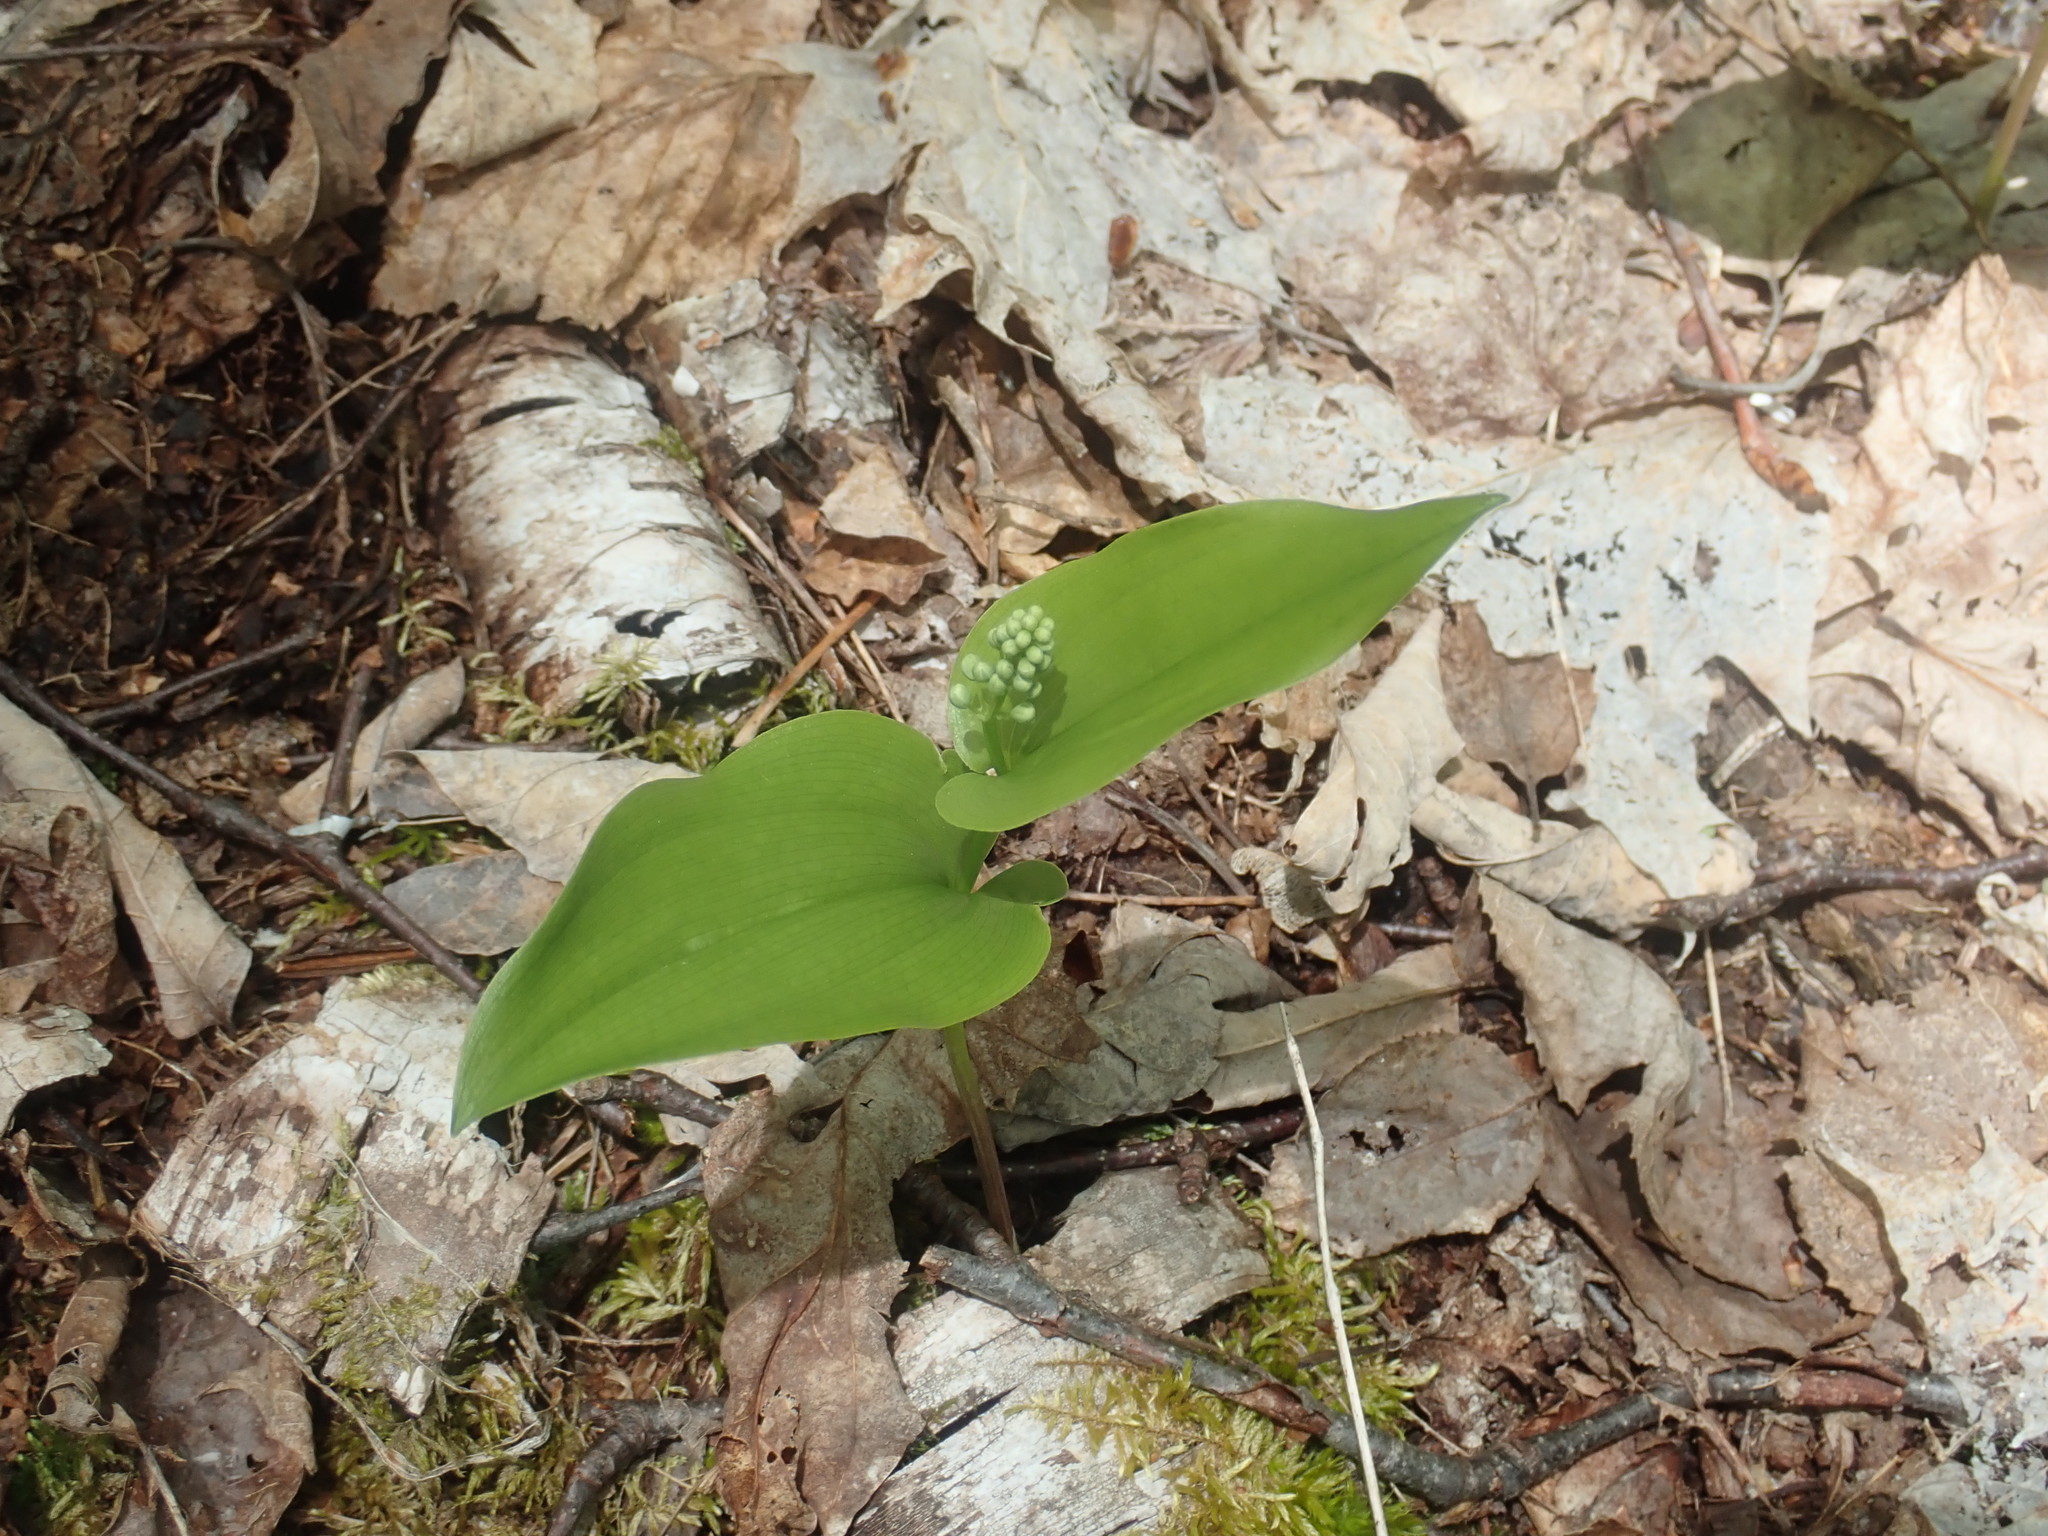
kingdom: Plantae
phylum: Tracheophyta
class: Liliopsida
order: Asparagales
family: Asparagaceae
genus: Maianthemum
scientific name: Maianthemum canadense
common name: False lily-of-the-valley
